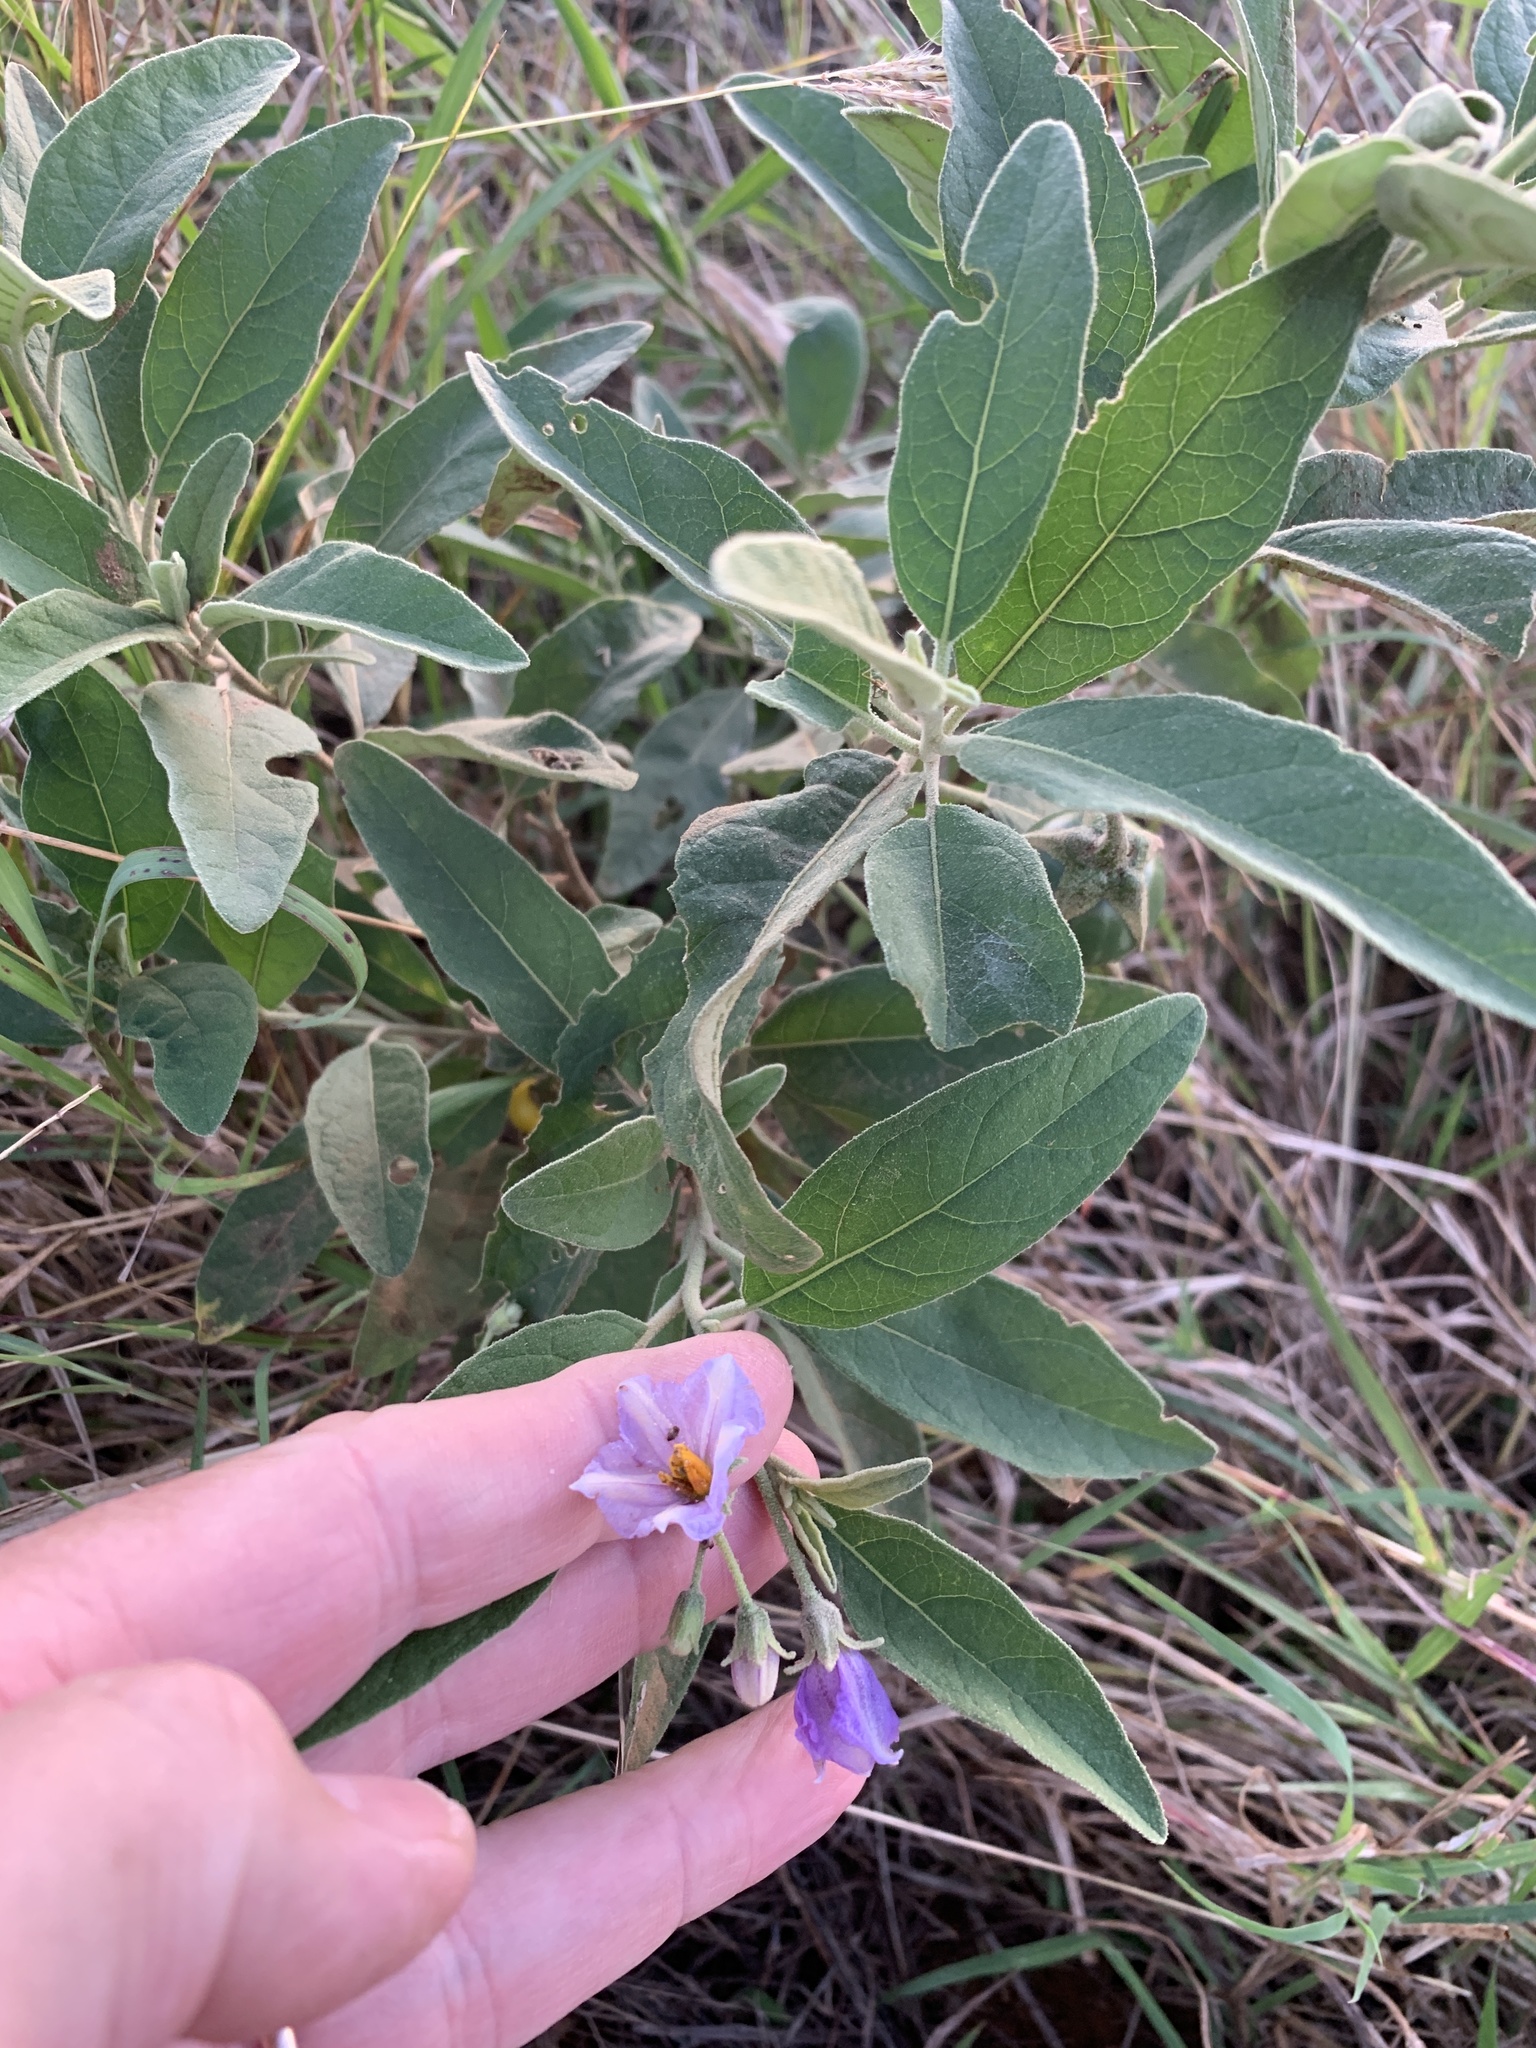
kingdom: Plantae
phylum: Tracheophyta
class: Magnoliopsida
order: Solanales
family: Solanaceae
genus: Solanum
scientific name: Solanum campylacanthum
